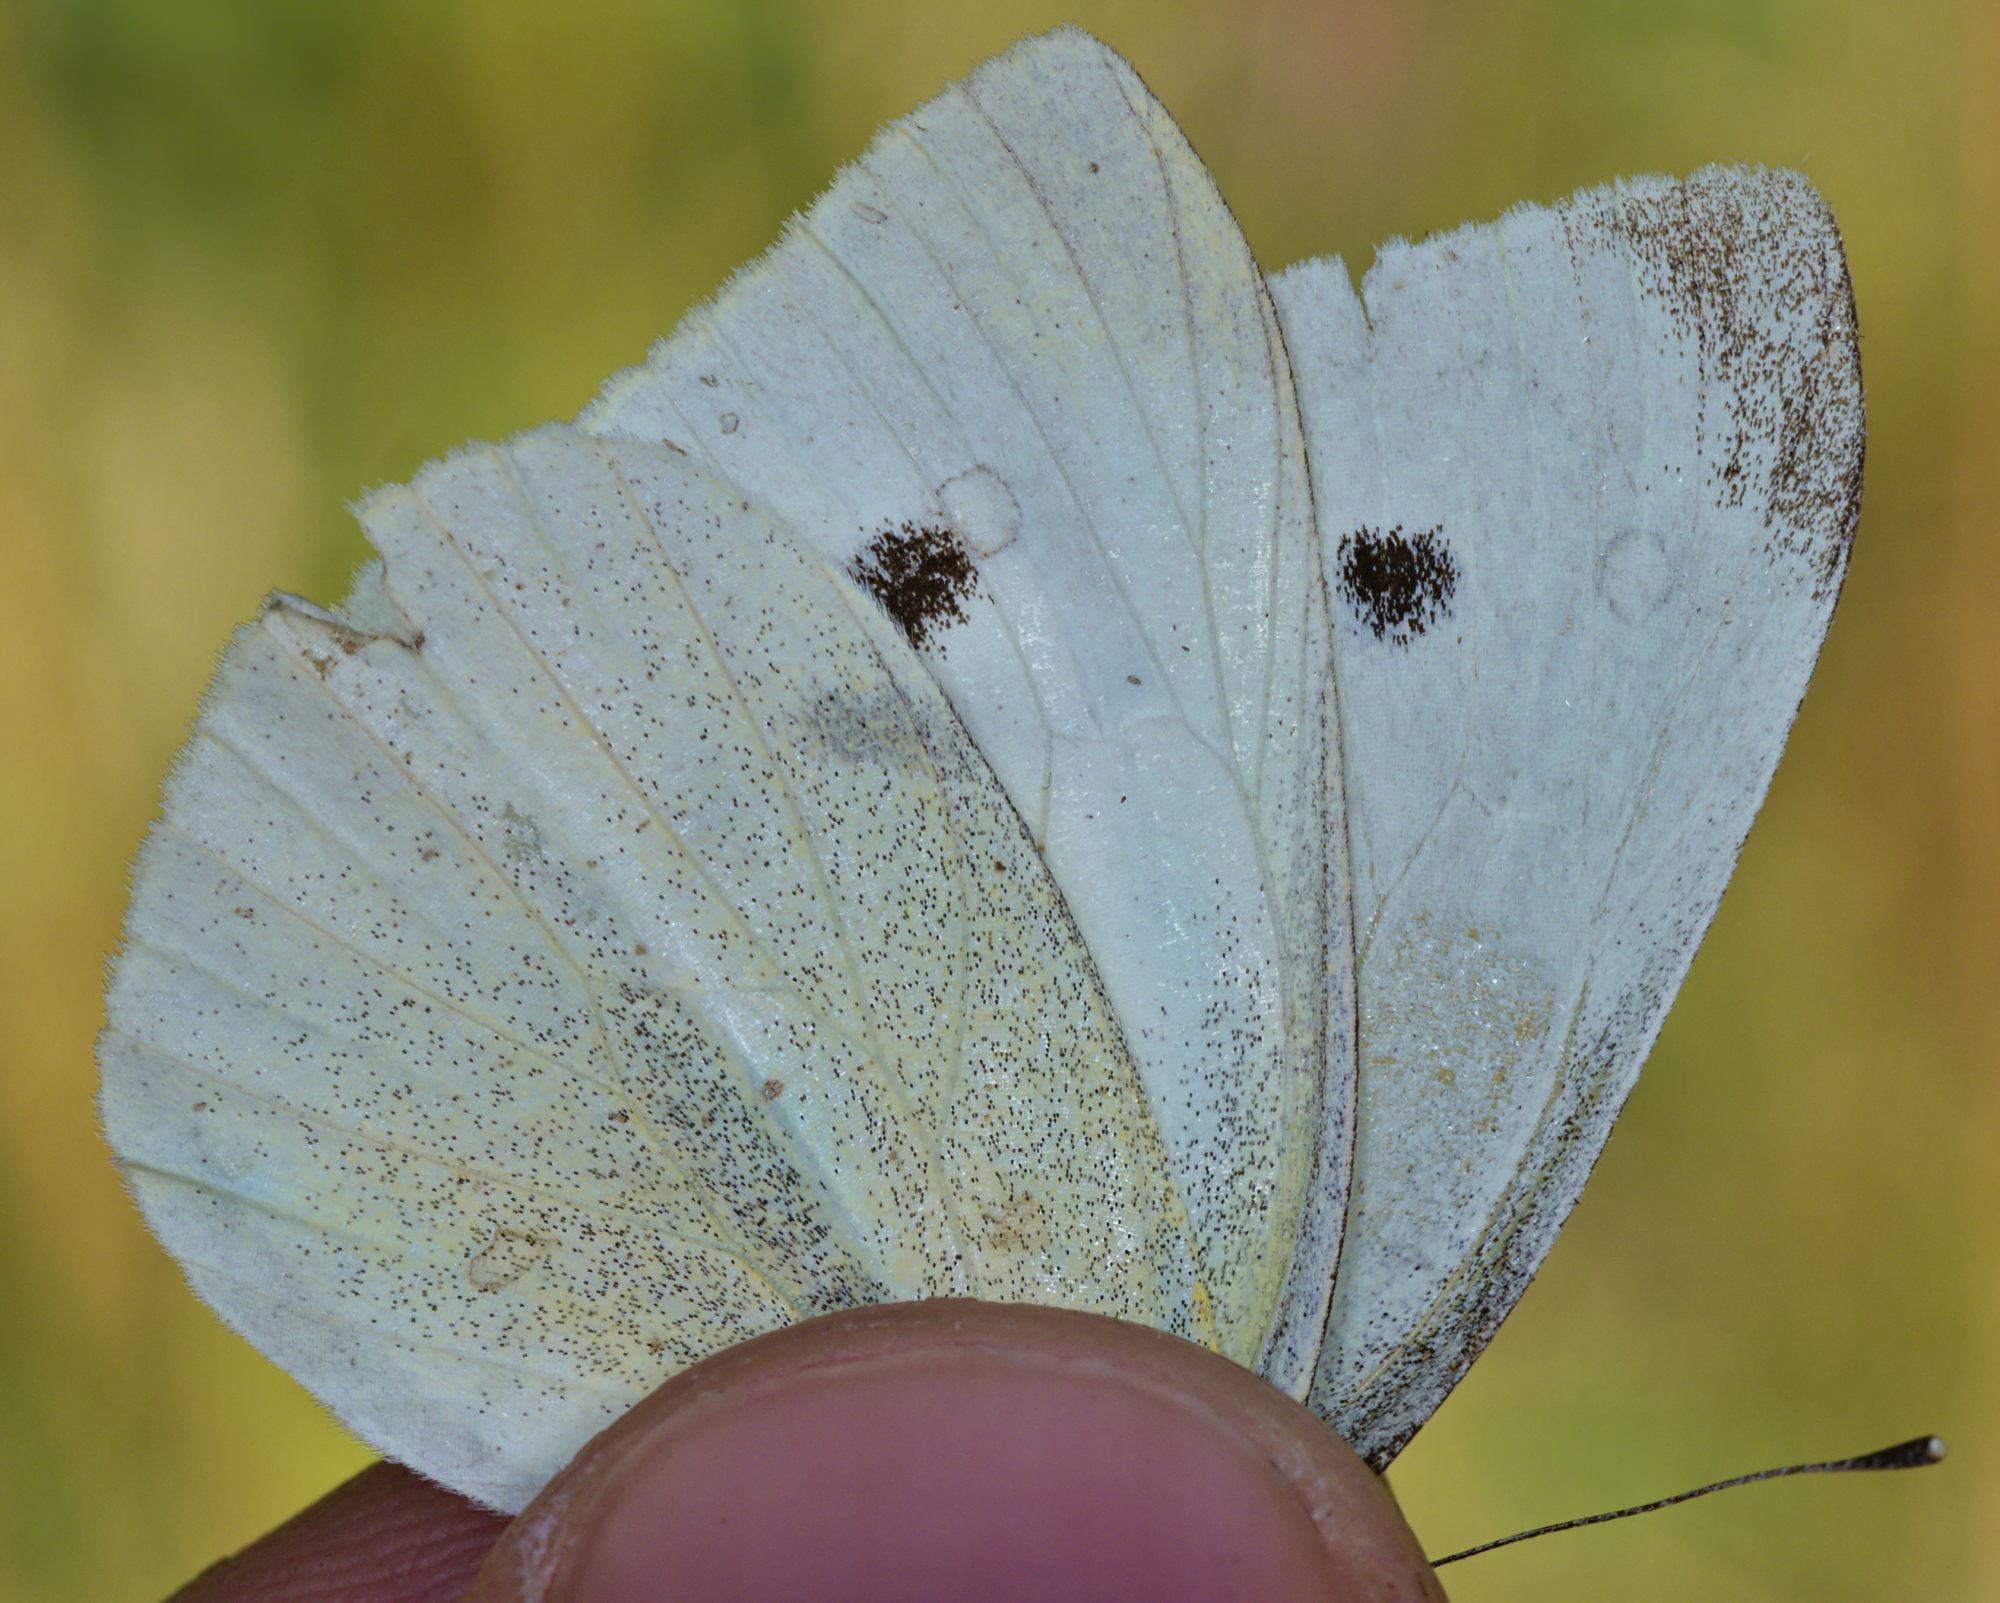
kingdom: Animalia
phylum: Arthropoda
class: Insecta
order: Lepidoptera
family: Pieridae
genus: Pieris
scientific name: Pieris rapae
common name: Small white
